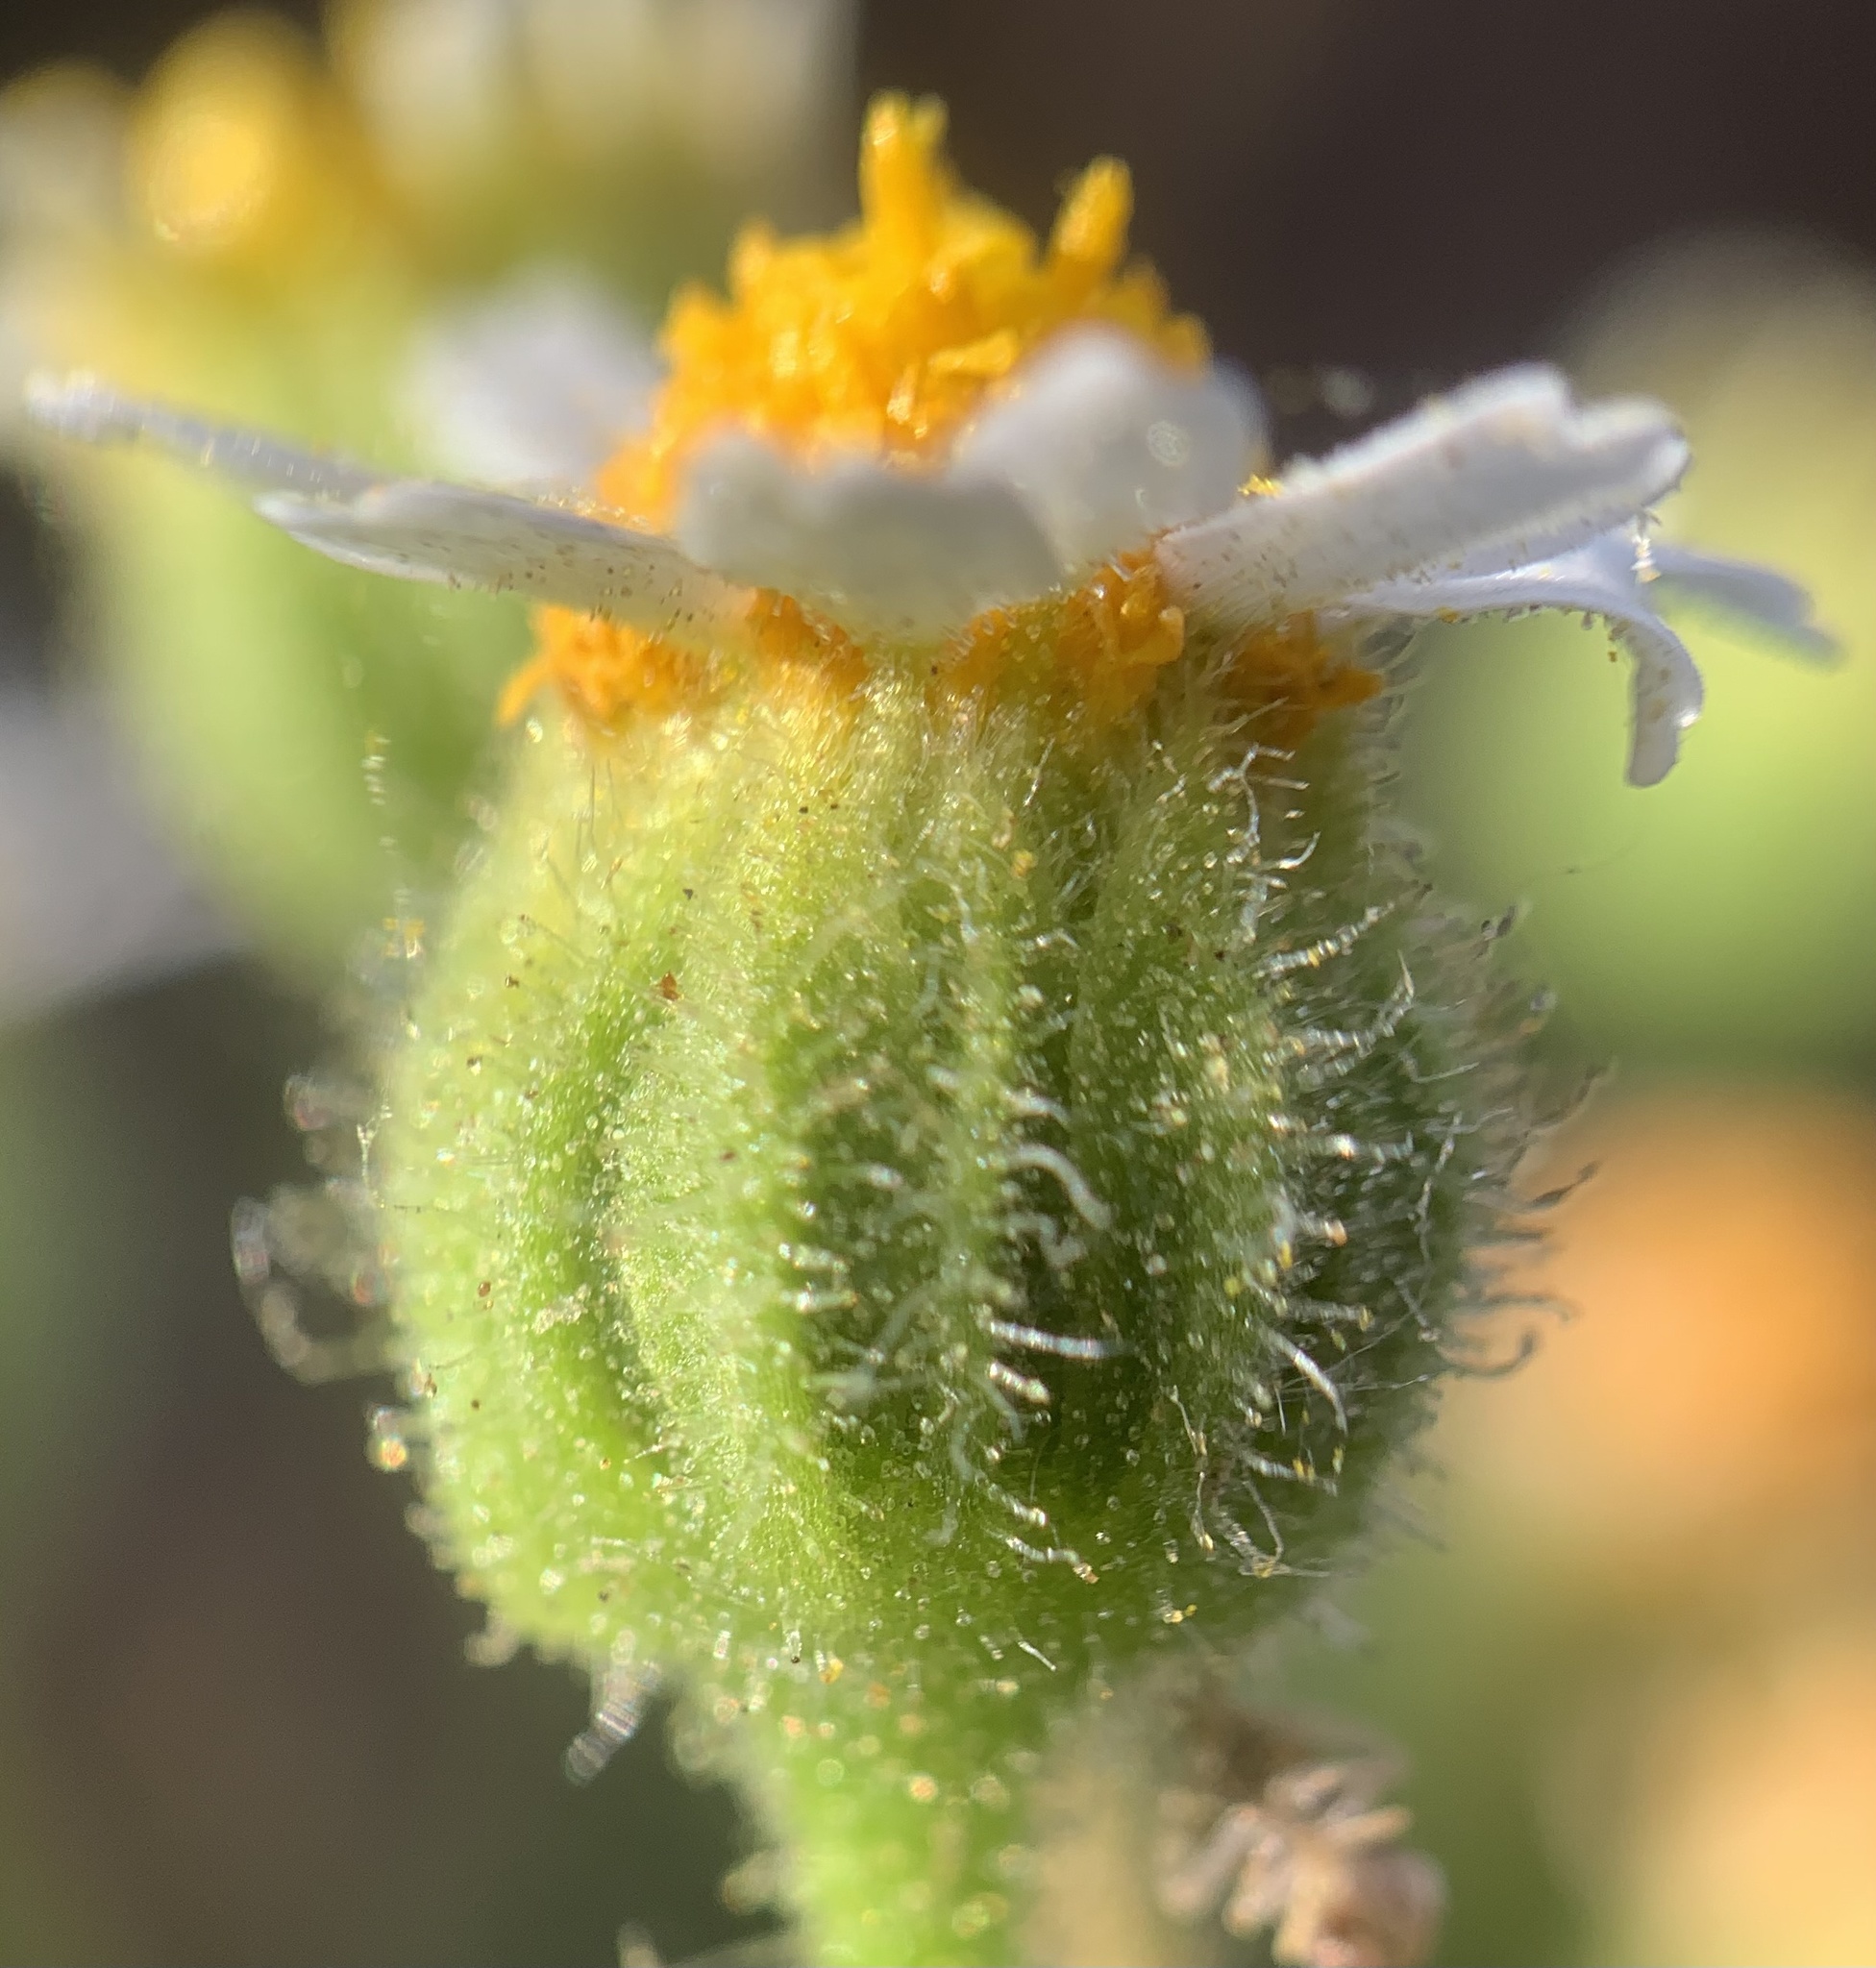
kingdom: Plantae
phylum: Tracheophyta
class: Magnoliopsida
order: Asterales
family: Asteraceae
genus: Laphamia
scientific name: Laphamia emoryi
